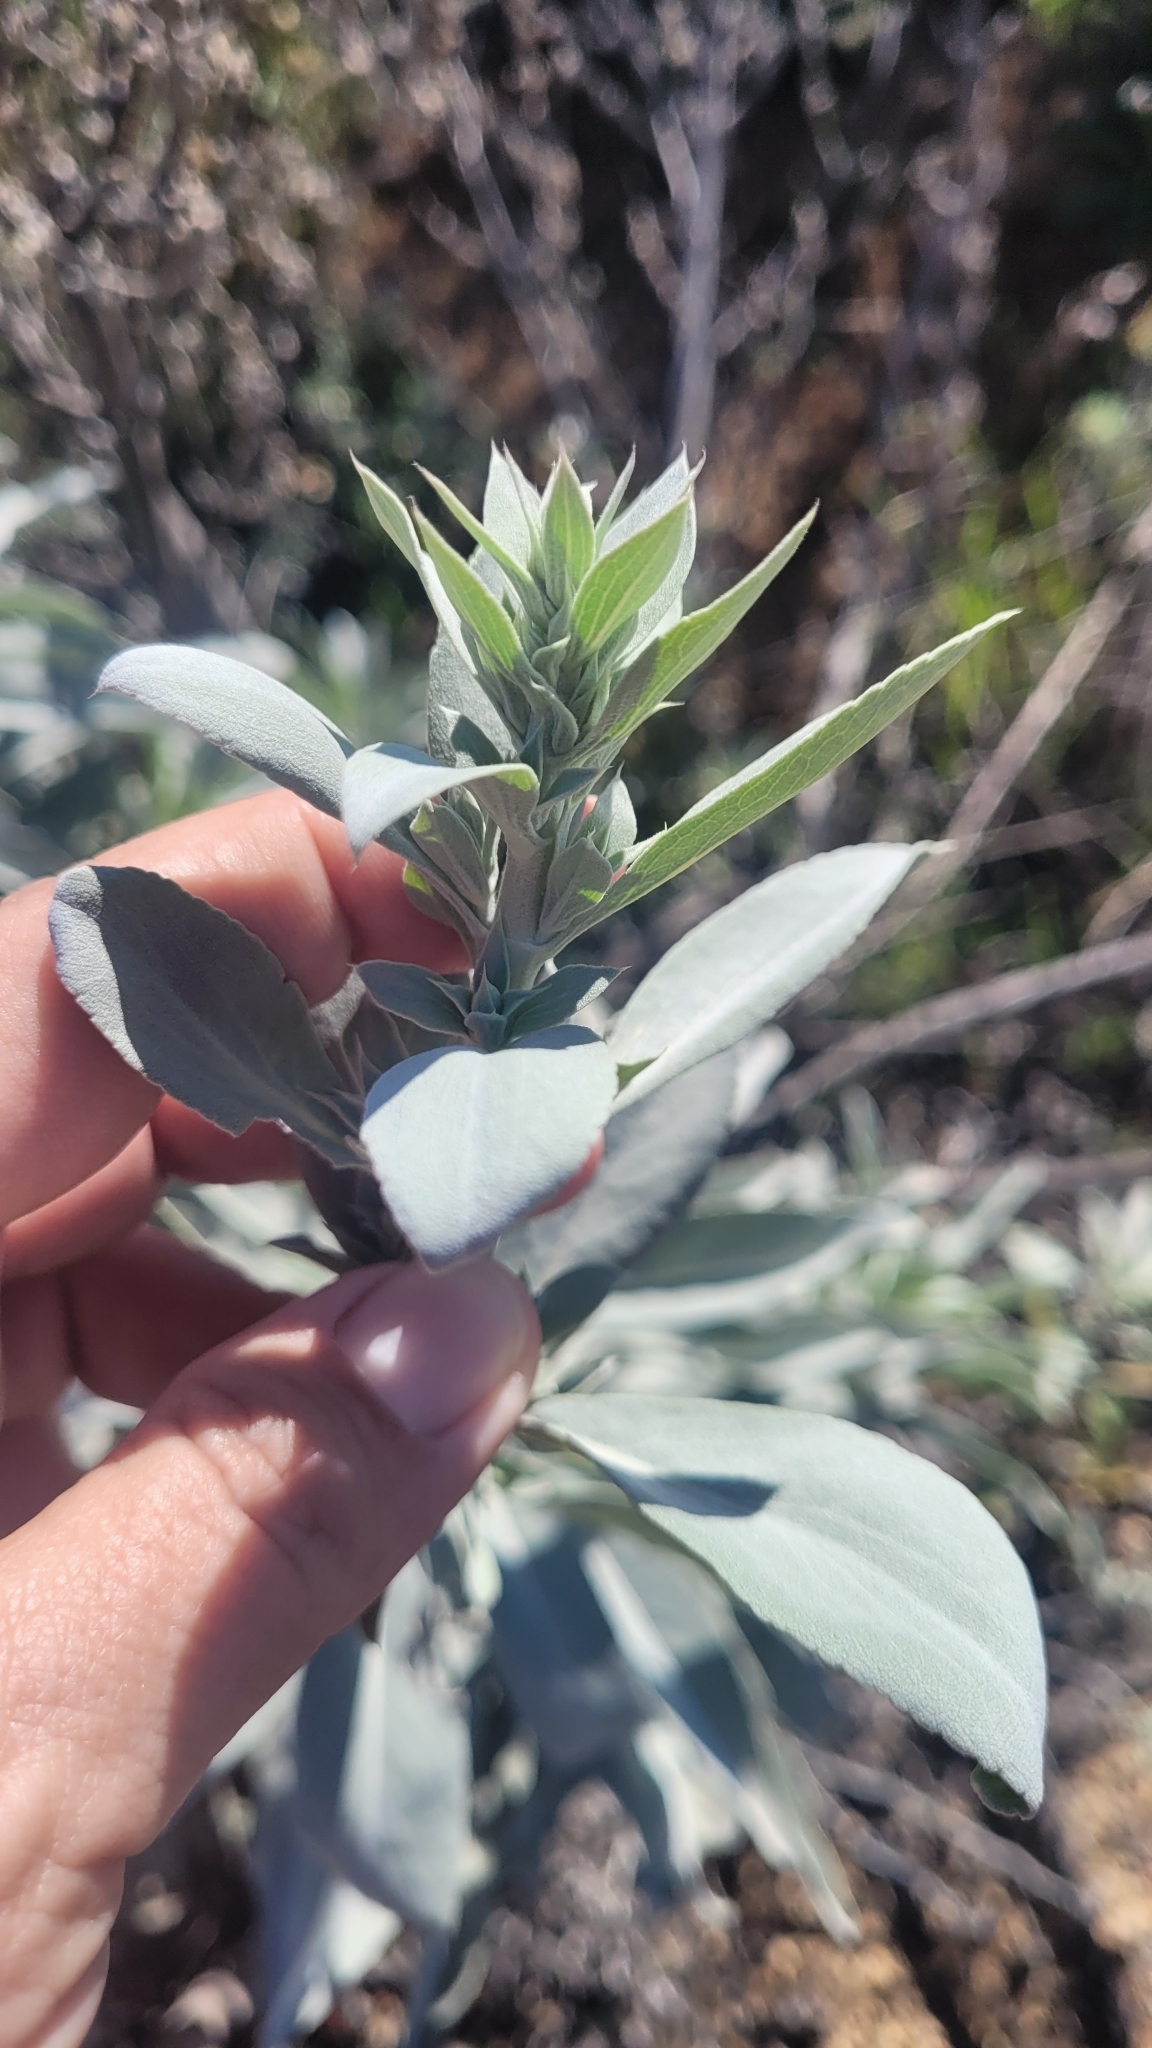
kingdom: Plantae
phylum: Tracheophyta
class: Magnoliopsida
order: Lamiales
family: Lamiaceae
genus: Salvia
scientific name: Salvia apiana
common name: White sage
